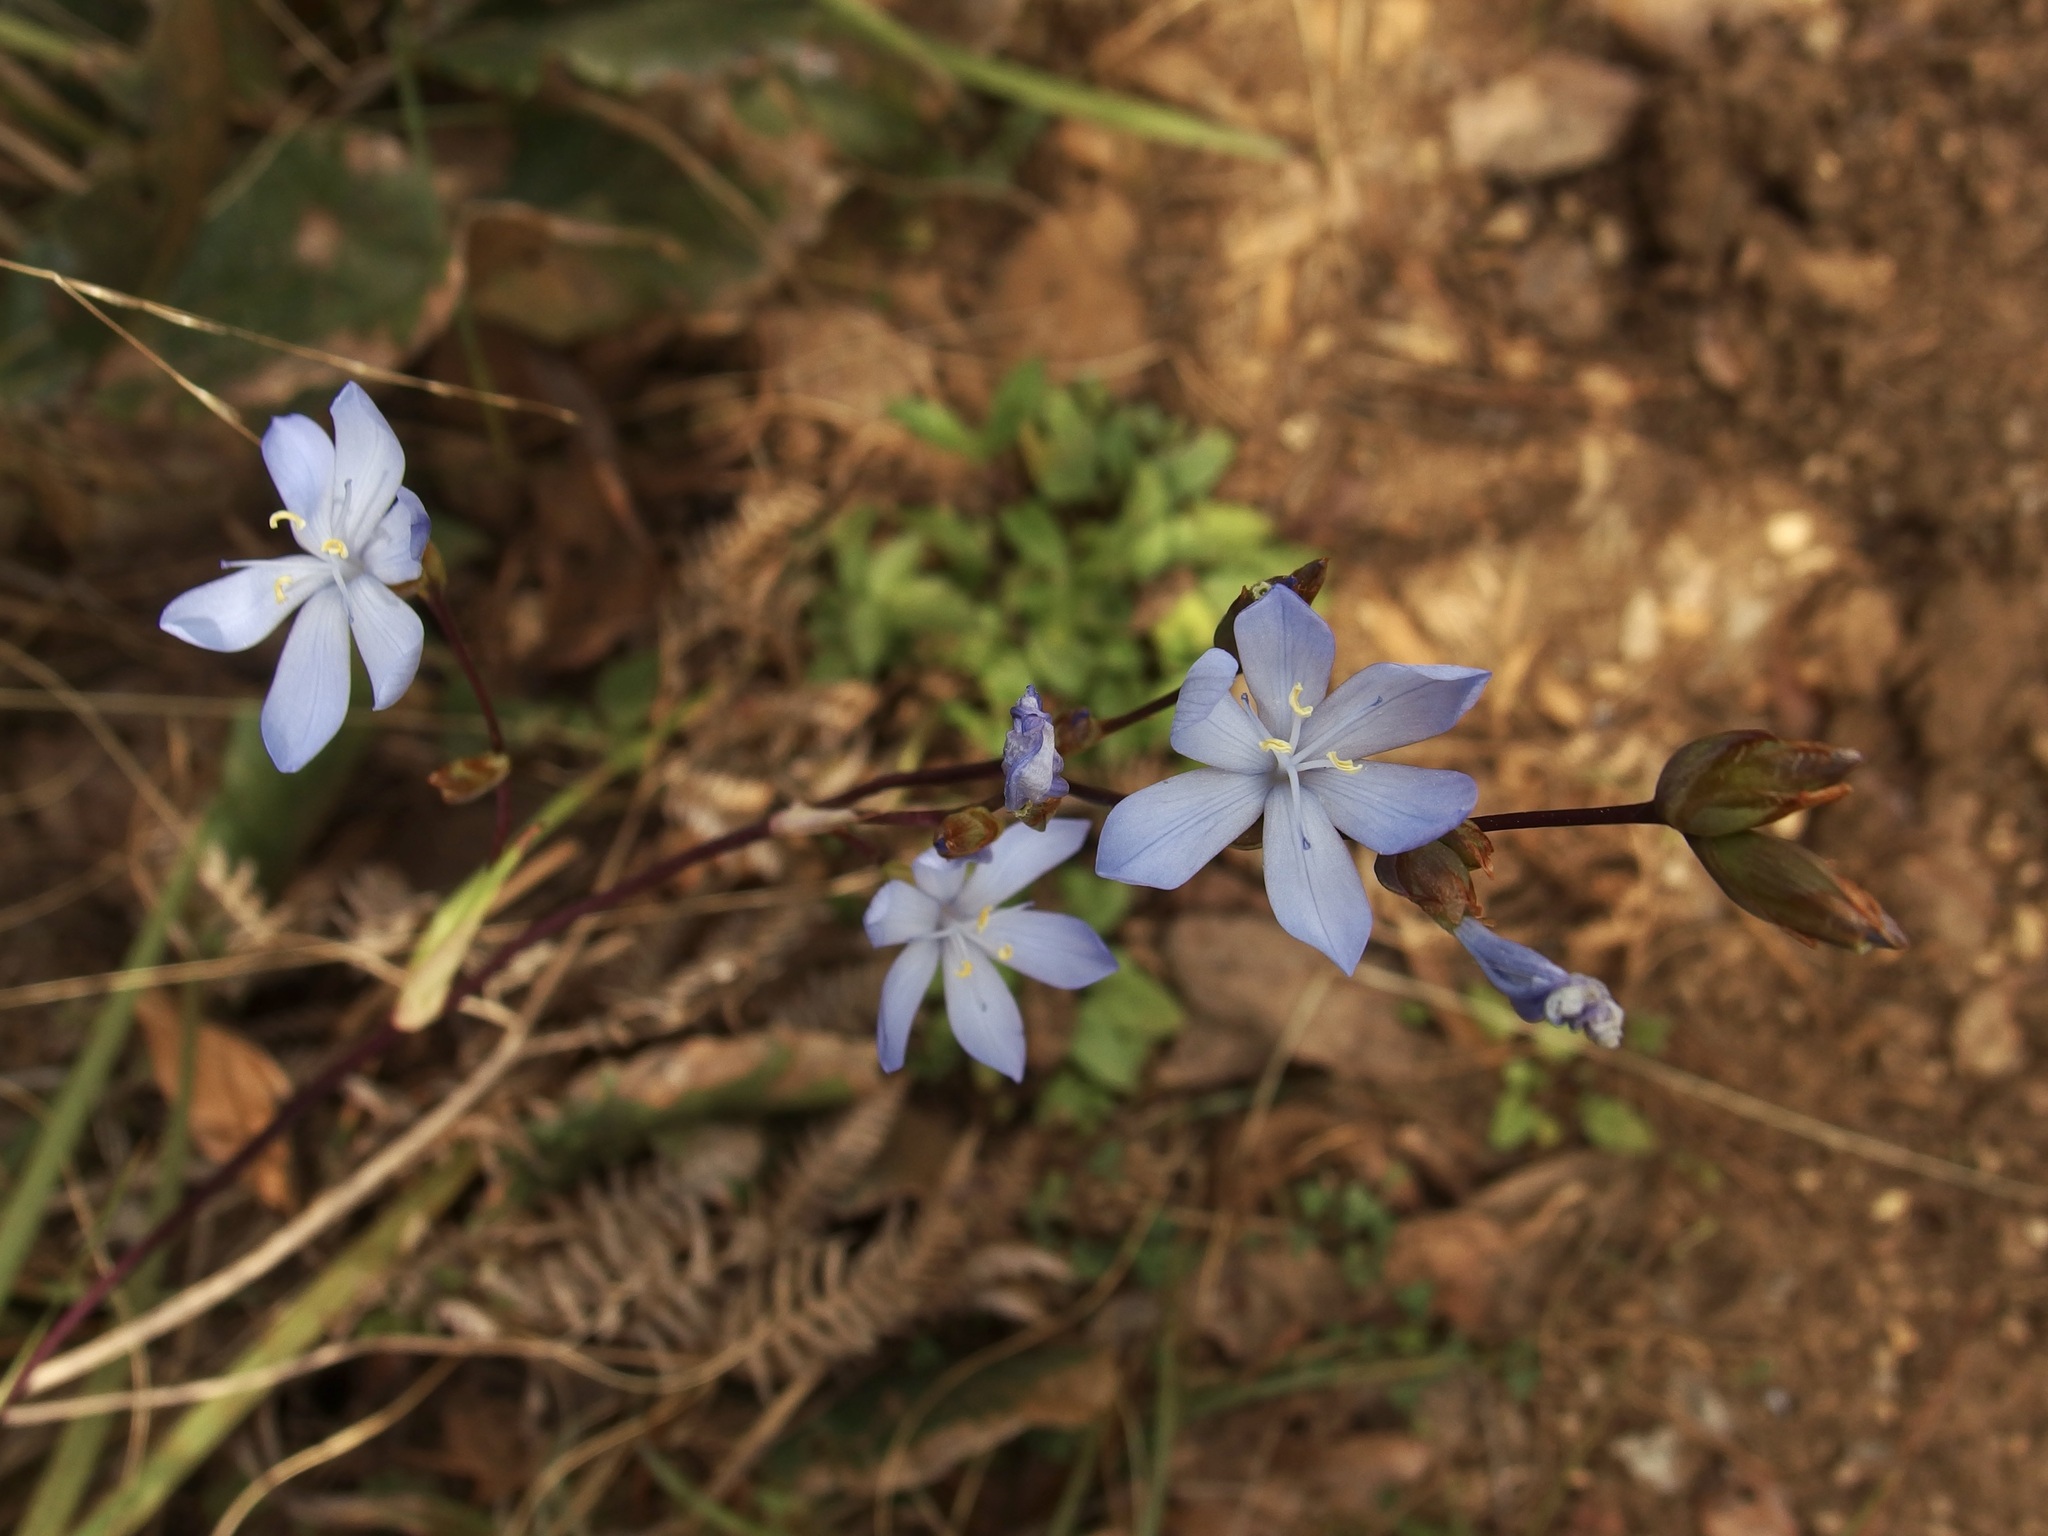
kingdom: Plantae
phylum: Tracheophyta
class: Liliopsida
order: Asparagales
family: Iridaceae
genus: Orthrosanthus
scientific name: Orthrosanthus monadelphus
